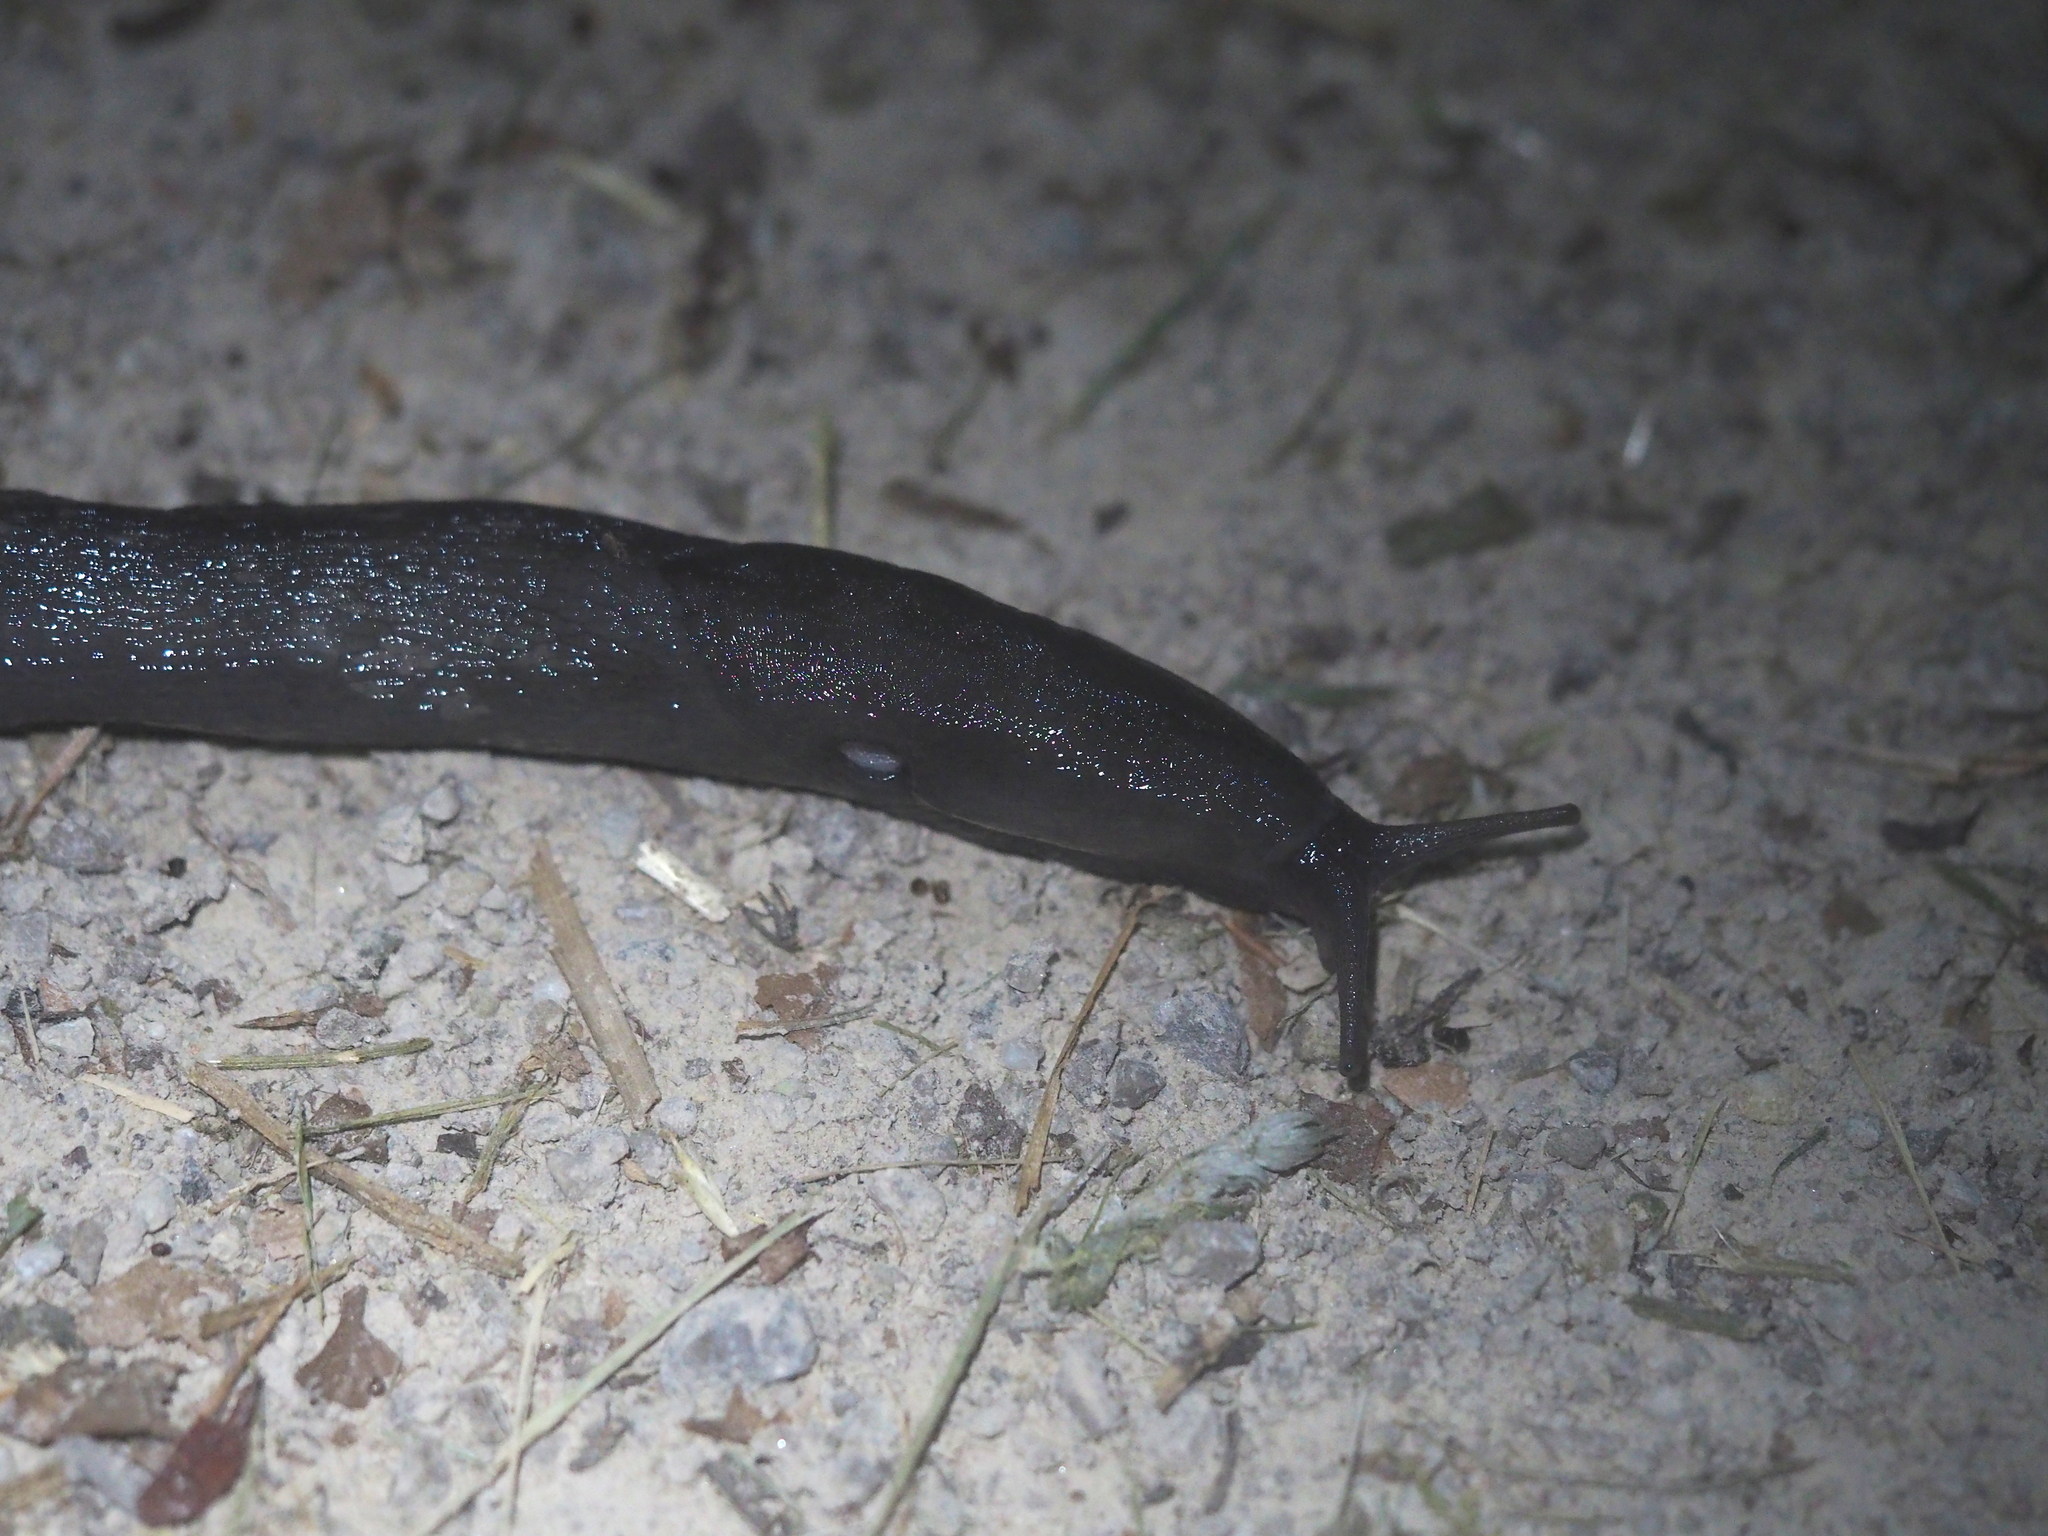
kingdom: Animalia
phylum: Mollusca
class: Gastropoda
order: Stylommatophora
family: Limacidae
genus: Limax
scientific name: Limax cinereoniger
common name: Ash-black slug
